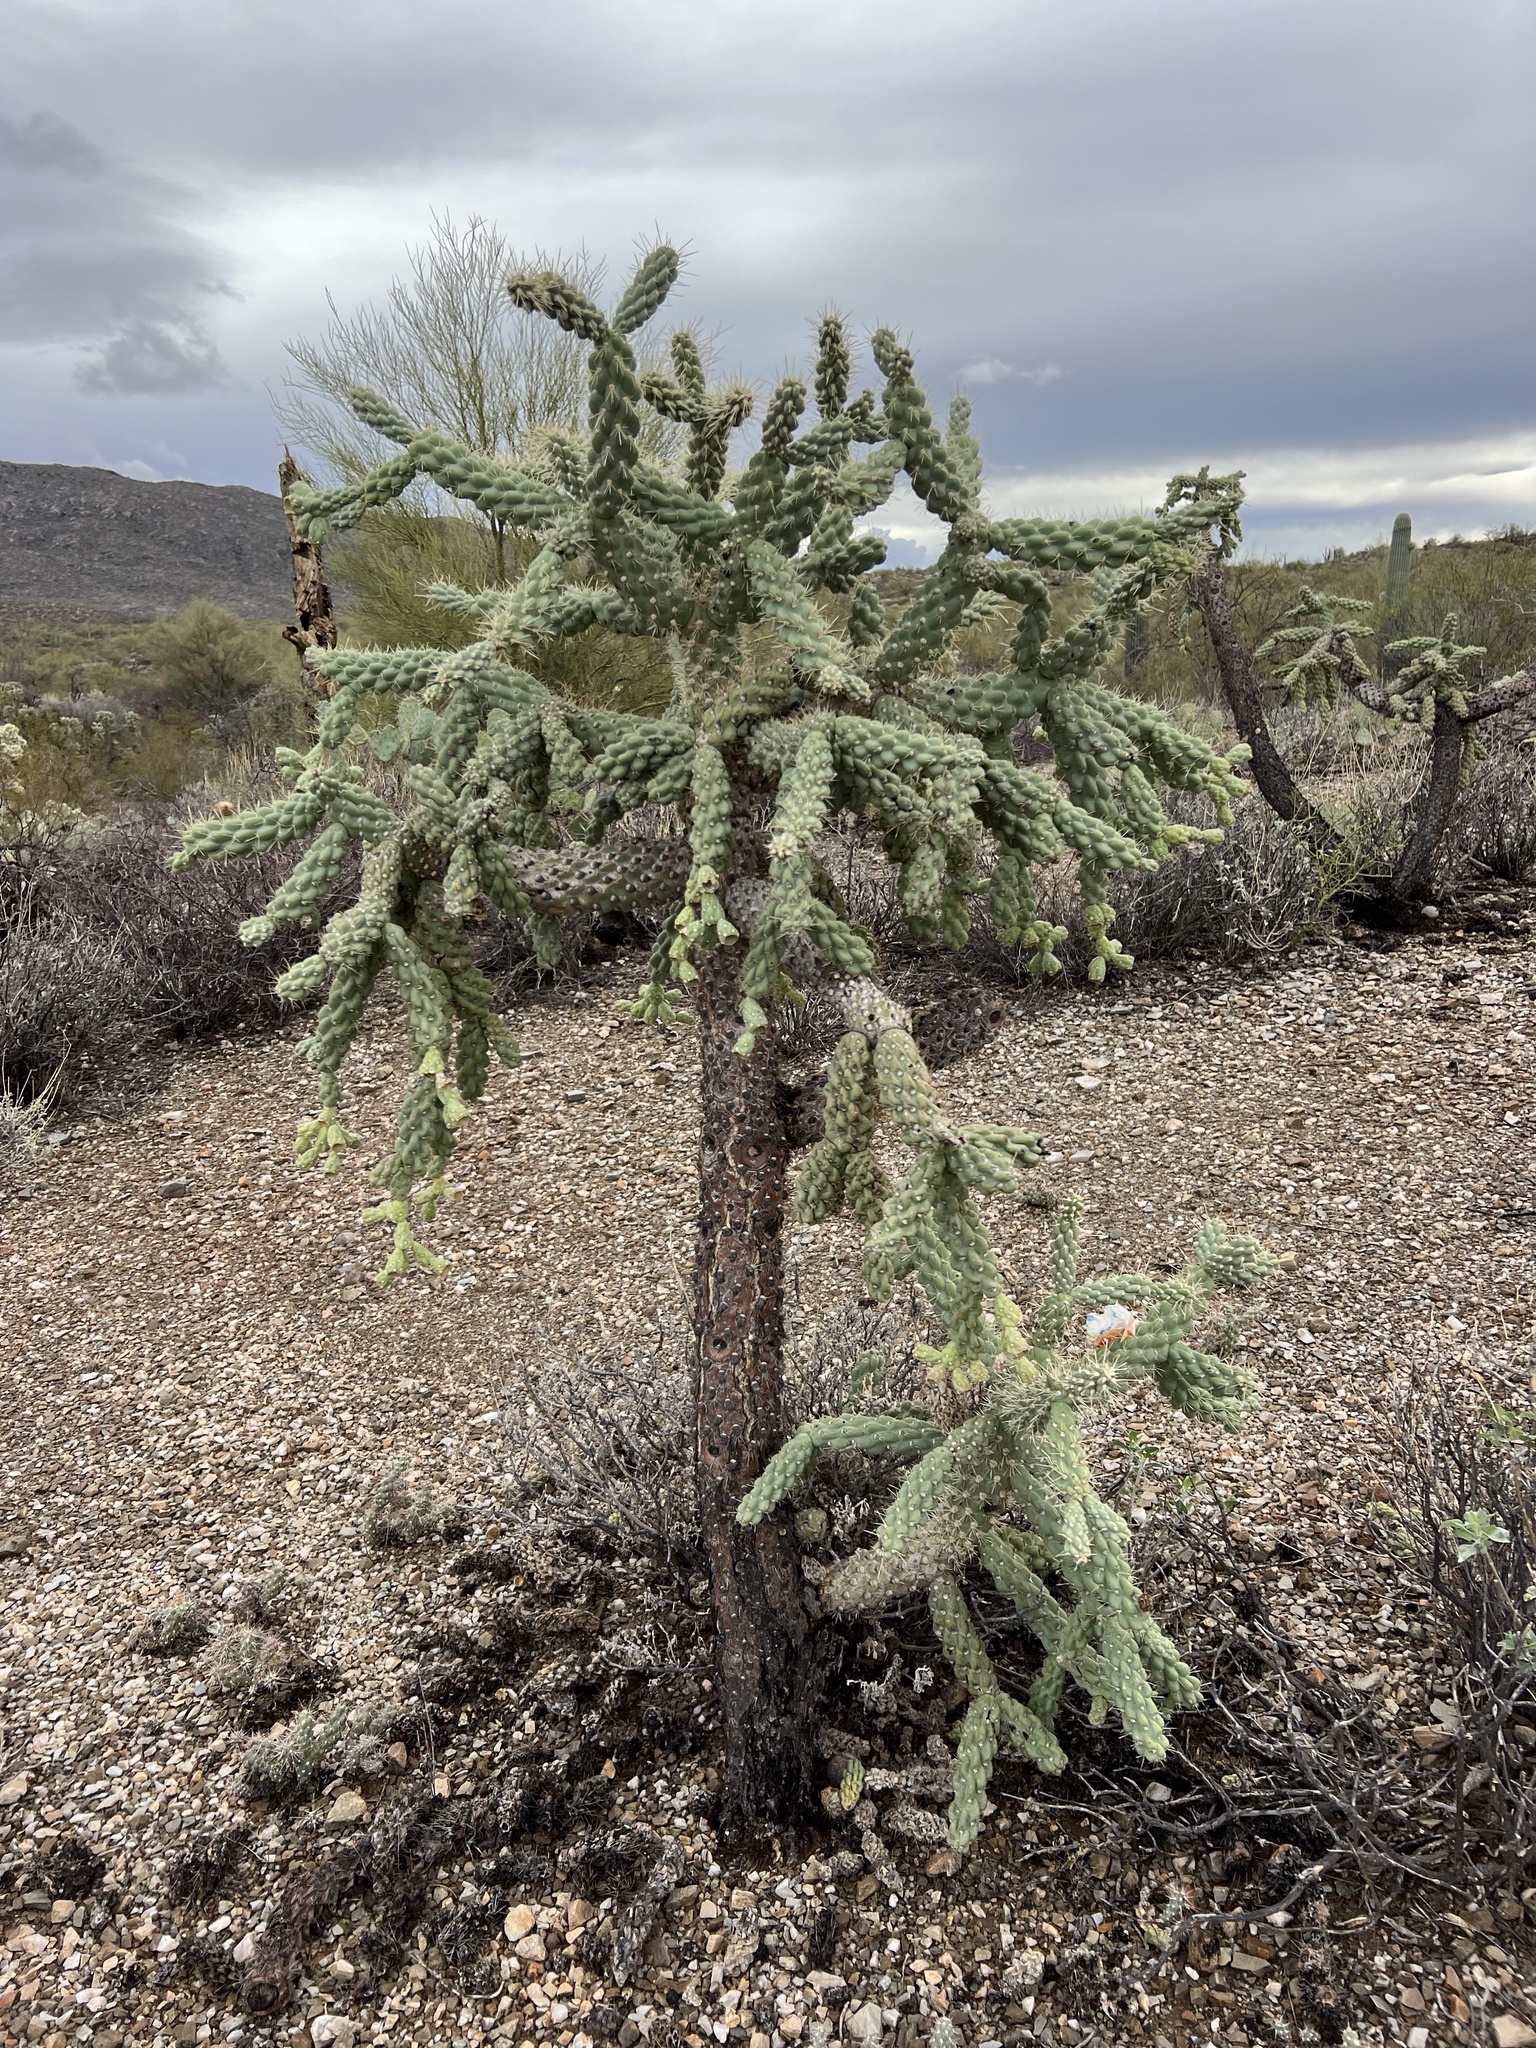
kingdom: Plantae
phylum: Tracheophyta
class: Magnoliopsida
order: Caryophyllales
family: Cactaceae
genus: Cylindropuntia
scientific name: Cylindropuntia fulgida
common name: Jumping cholla
